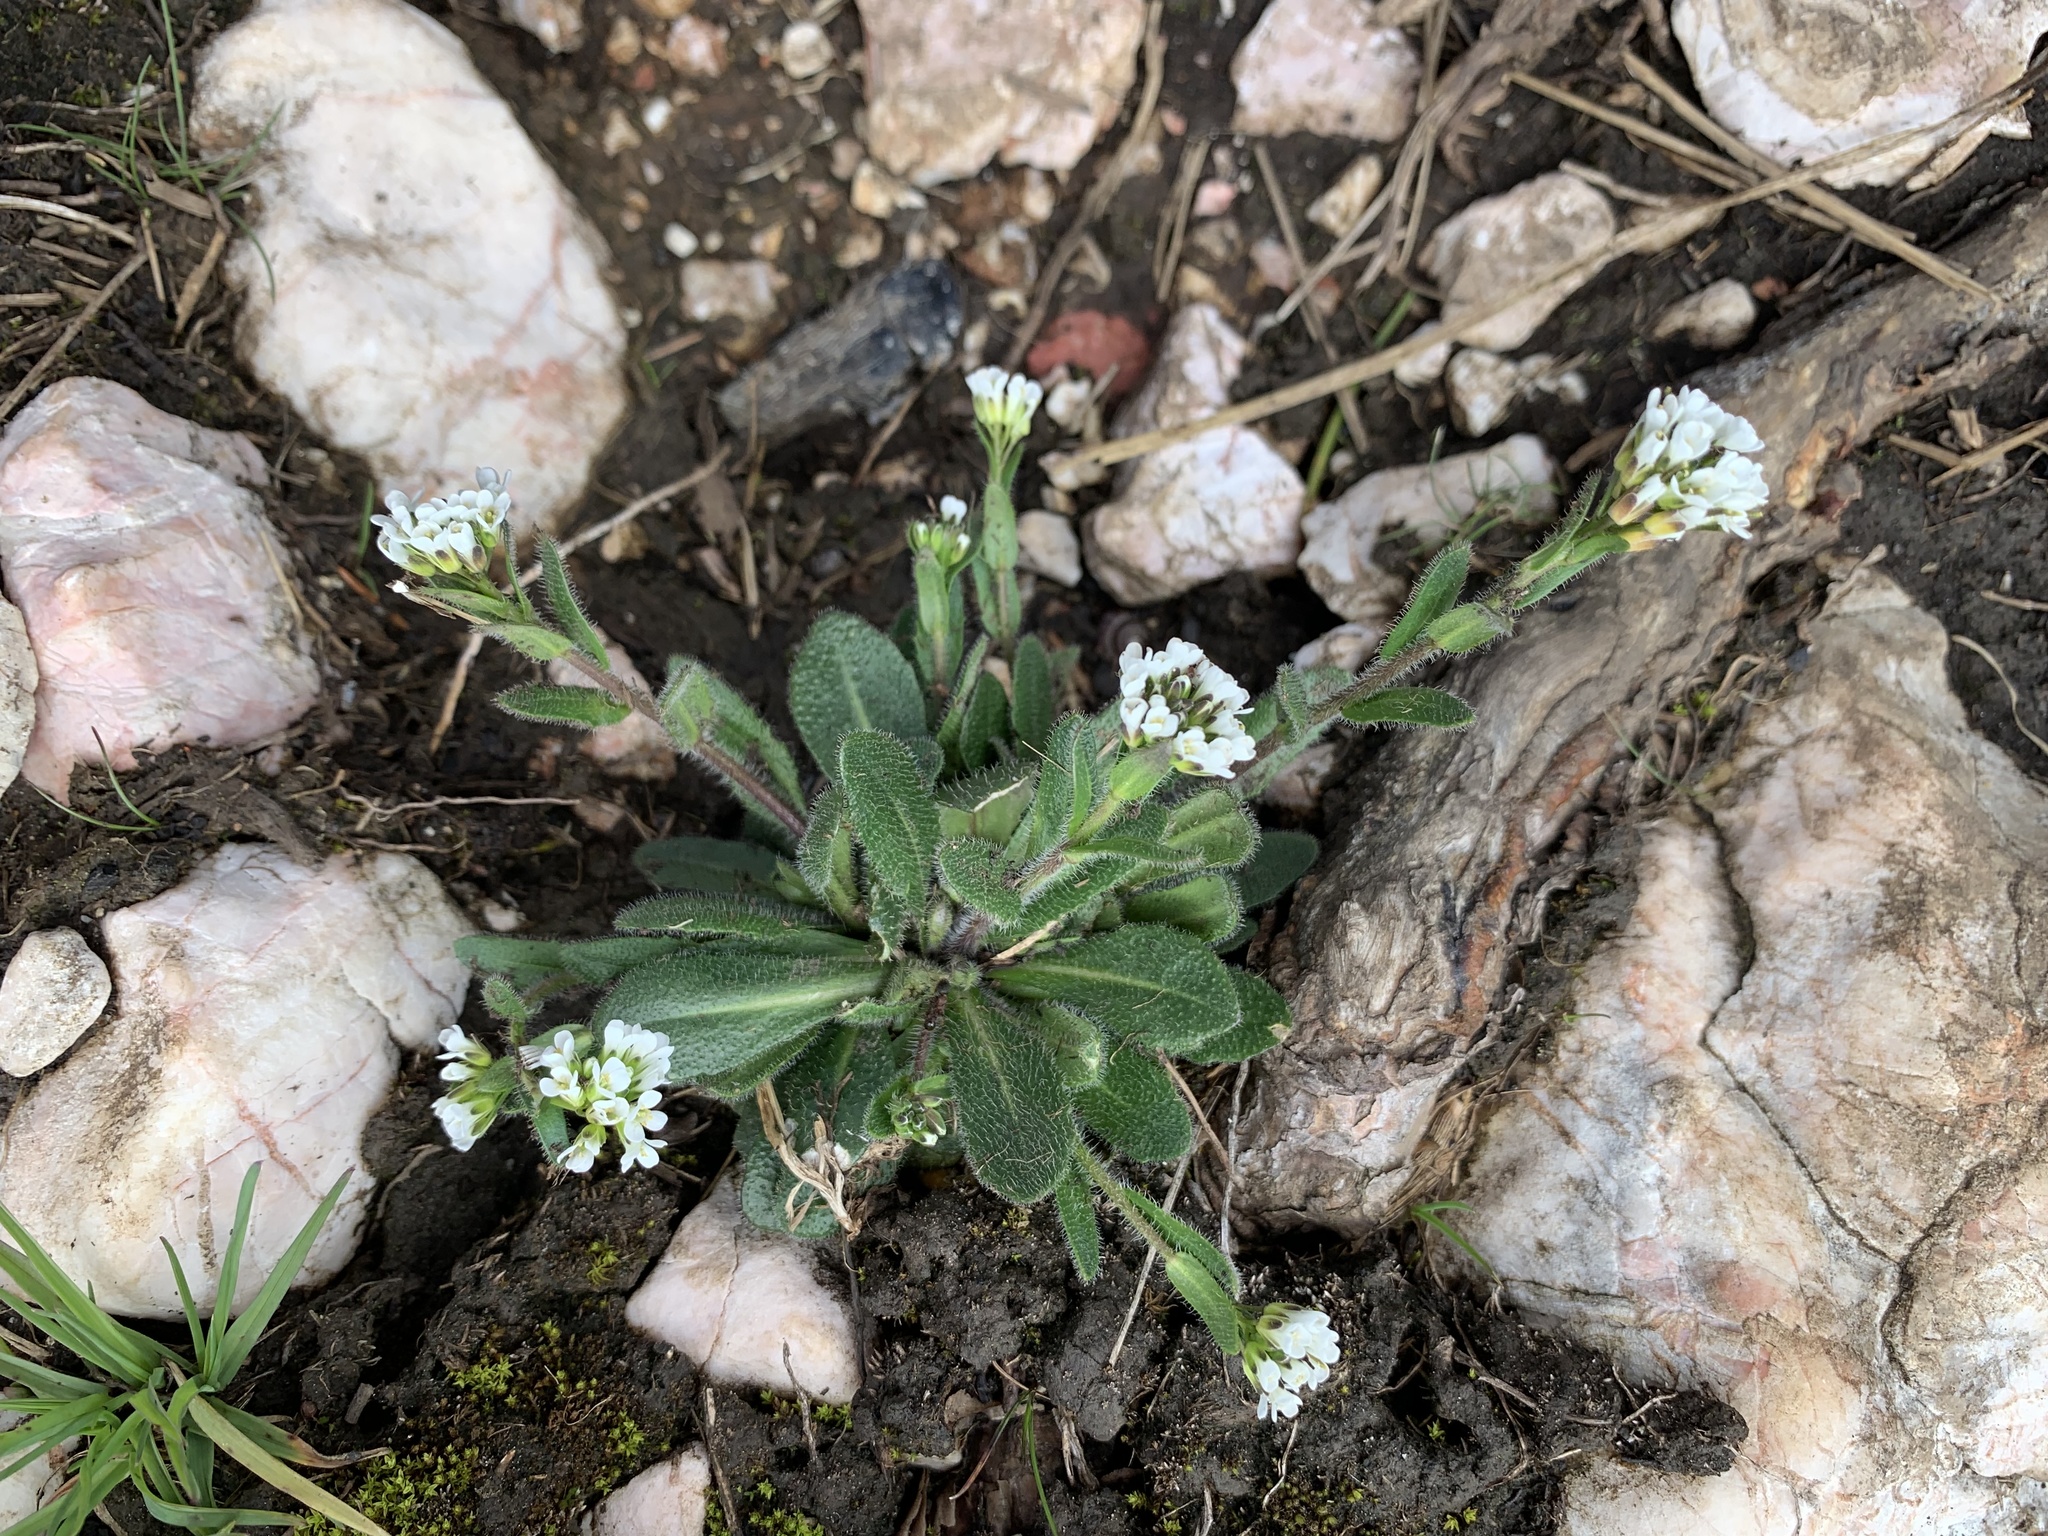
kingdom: Plantae
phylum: Tracheophyta
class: Magnoliopsida
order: Brassicales
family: Brassicaceae
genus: Arabis
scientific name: Arabis ciliata
